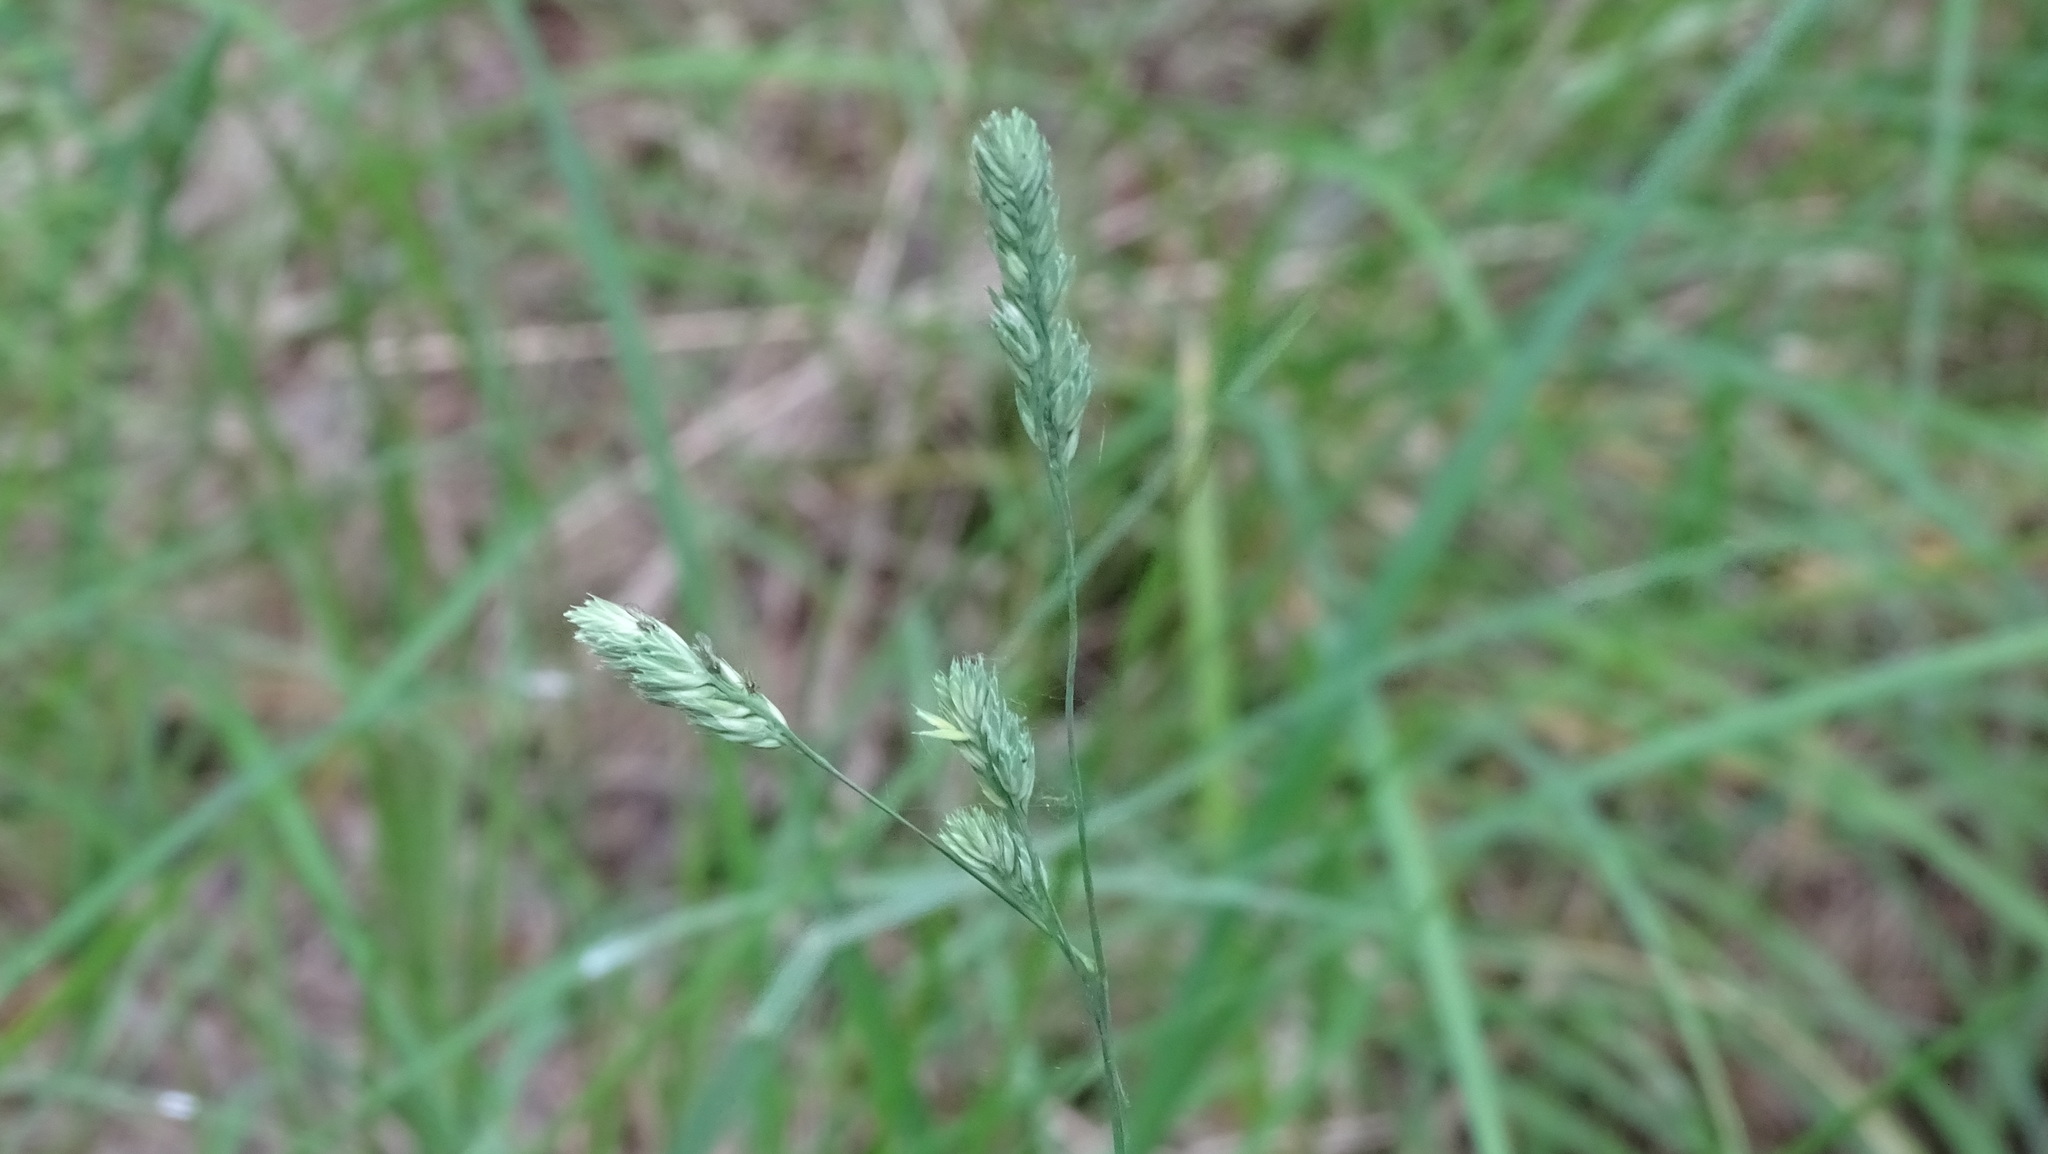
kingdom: Plantae
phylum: Tracheophyta
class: Liliopsida
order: Poales
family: Poaceae
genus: Dactylis
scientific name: Dactylis glomerata
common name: Orchardgrass
